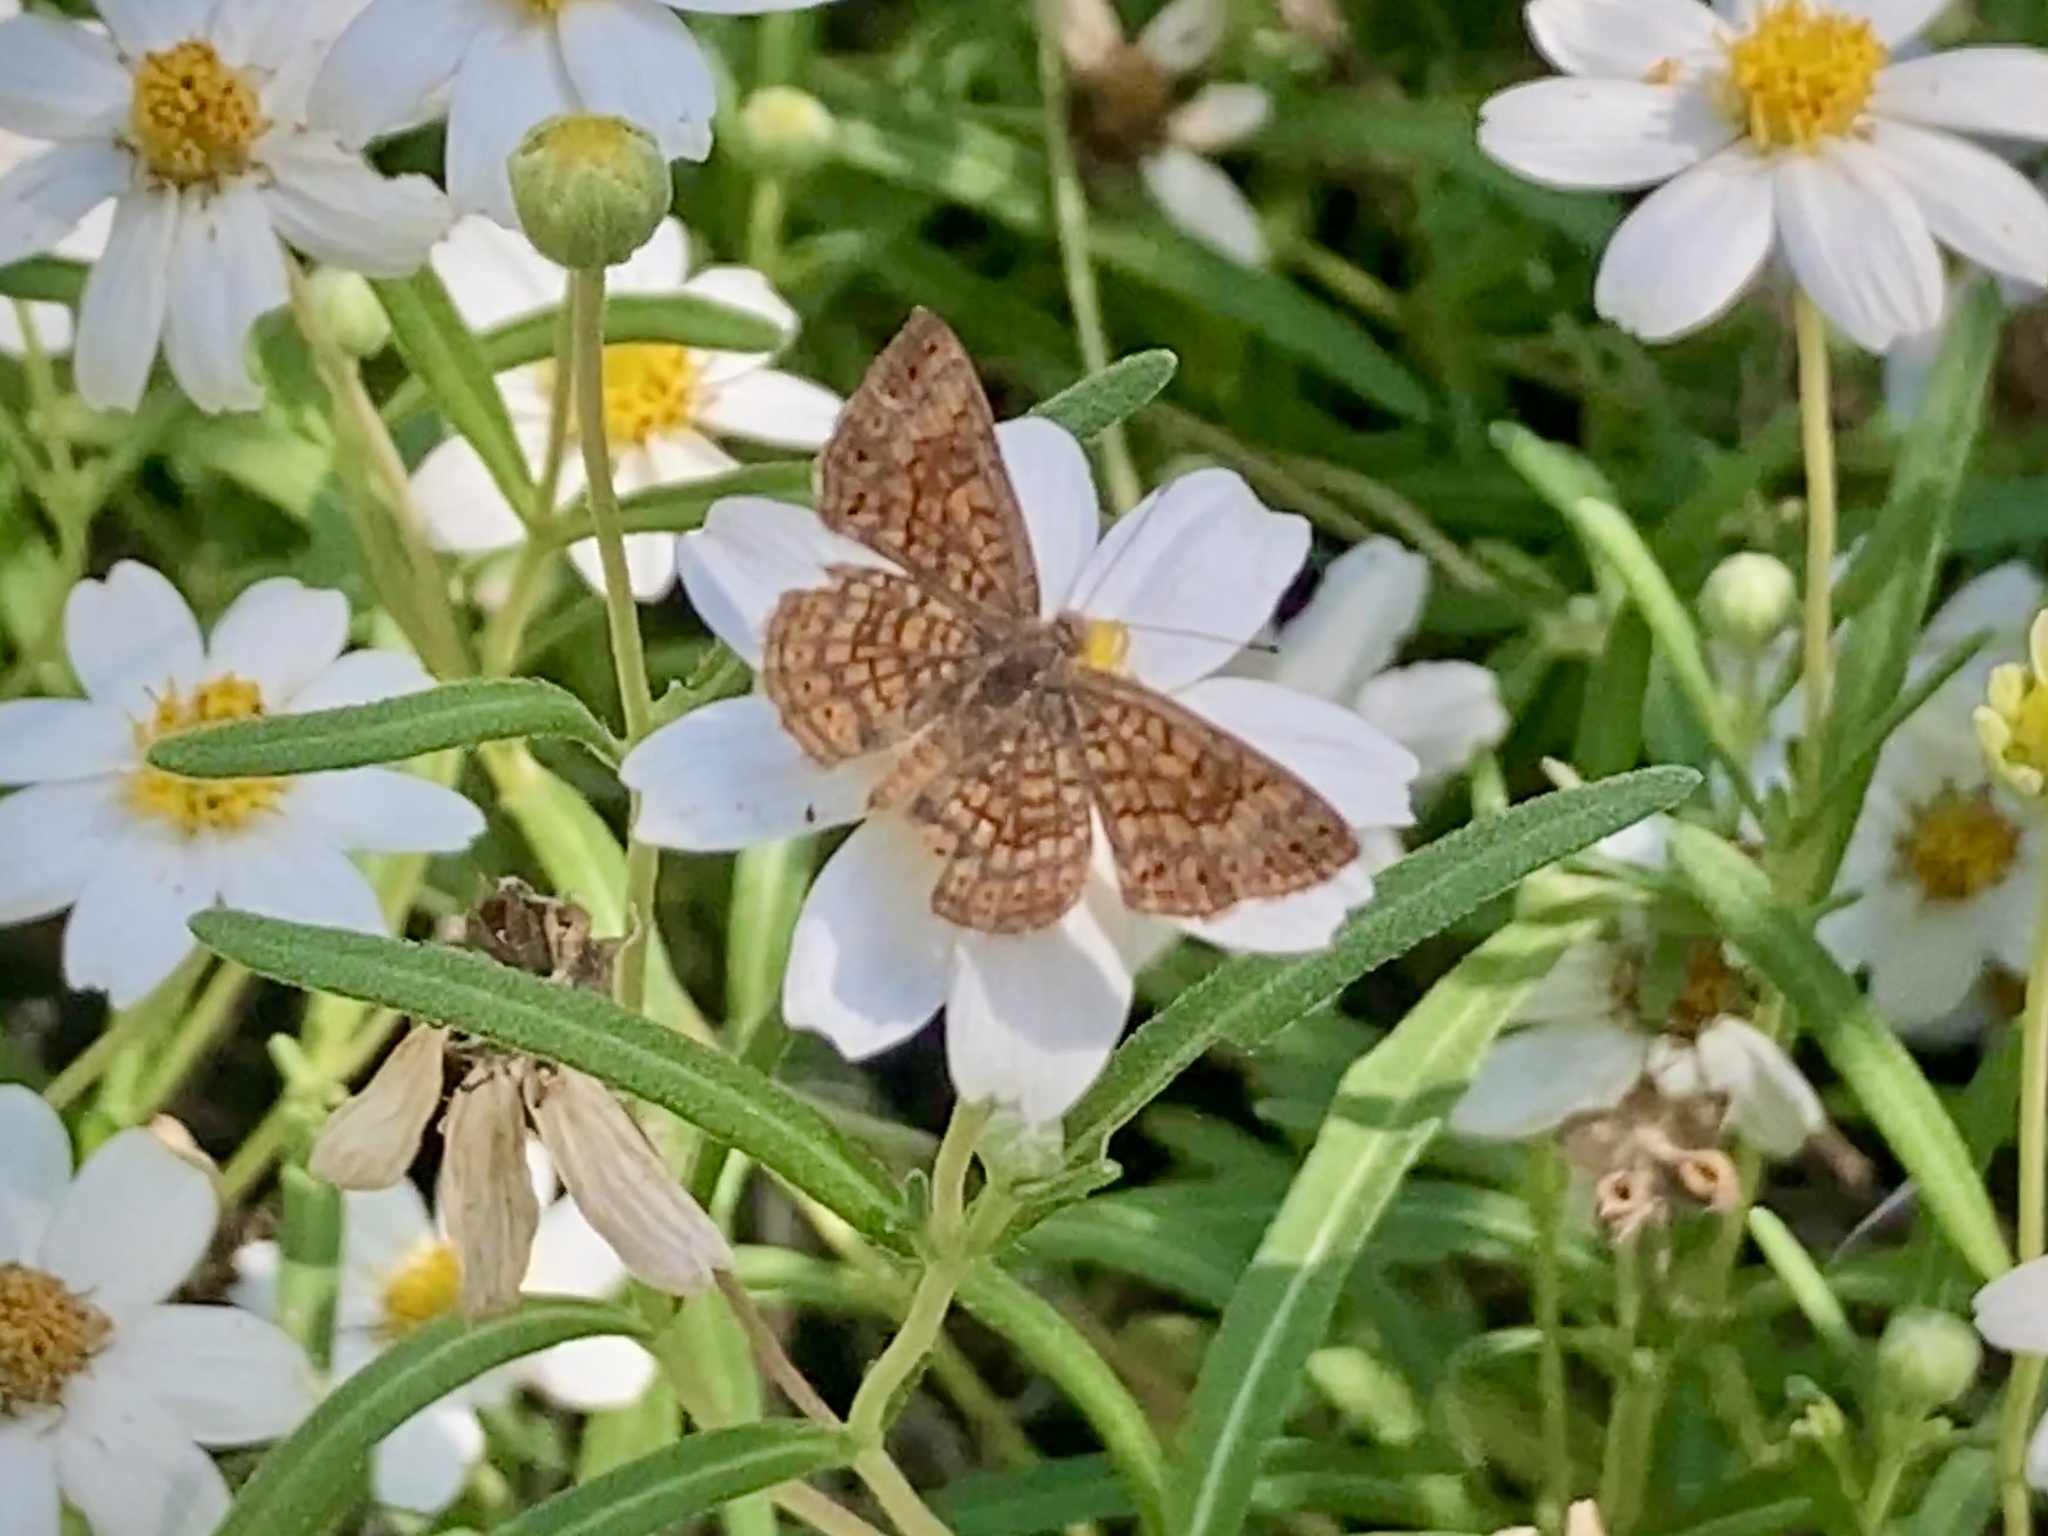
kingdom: Animalia
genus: Calephelis
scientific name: Calephelis nemesis
